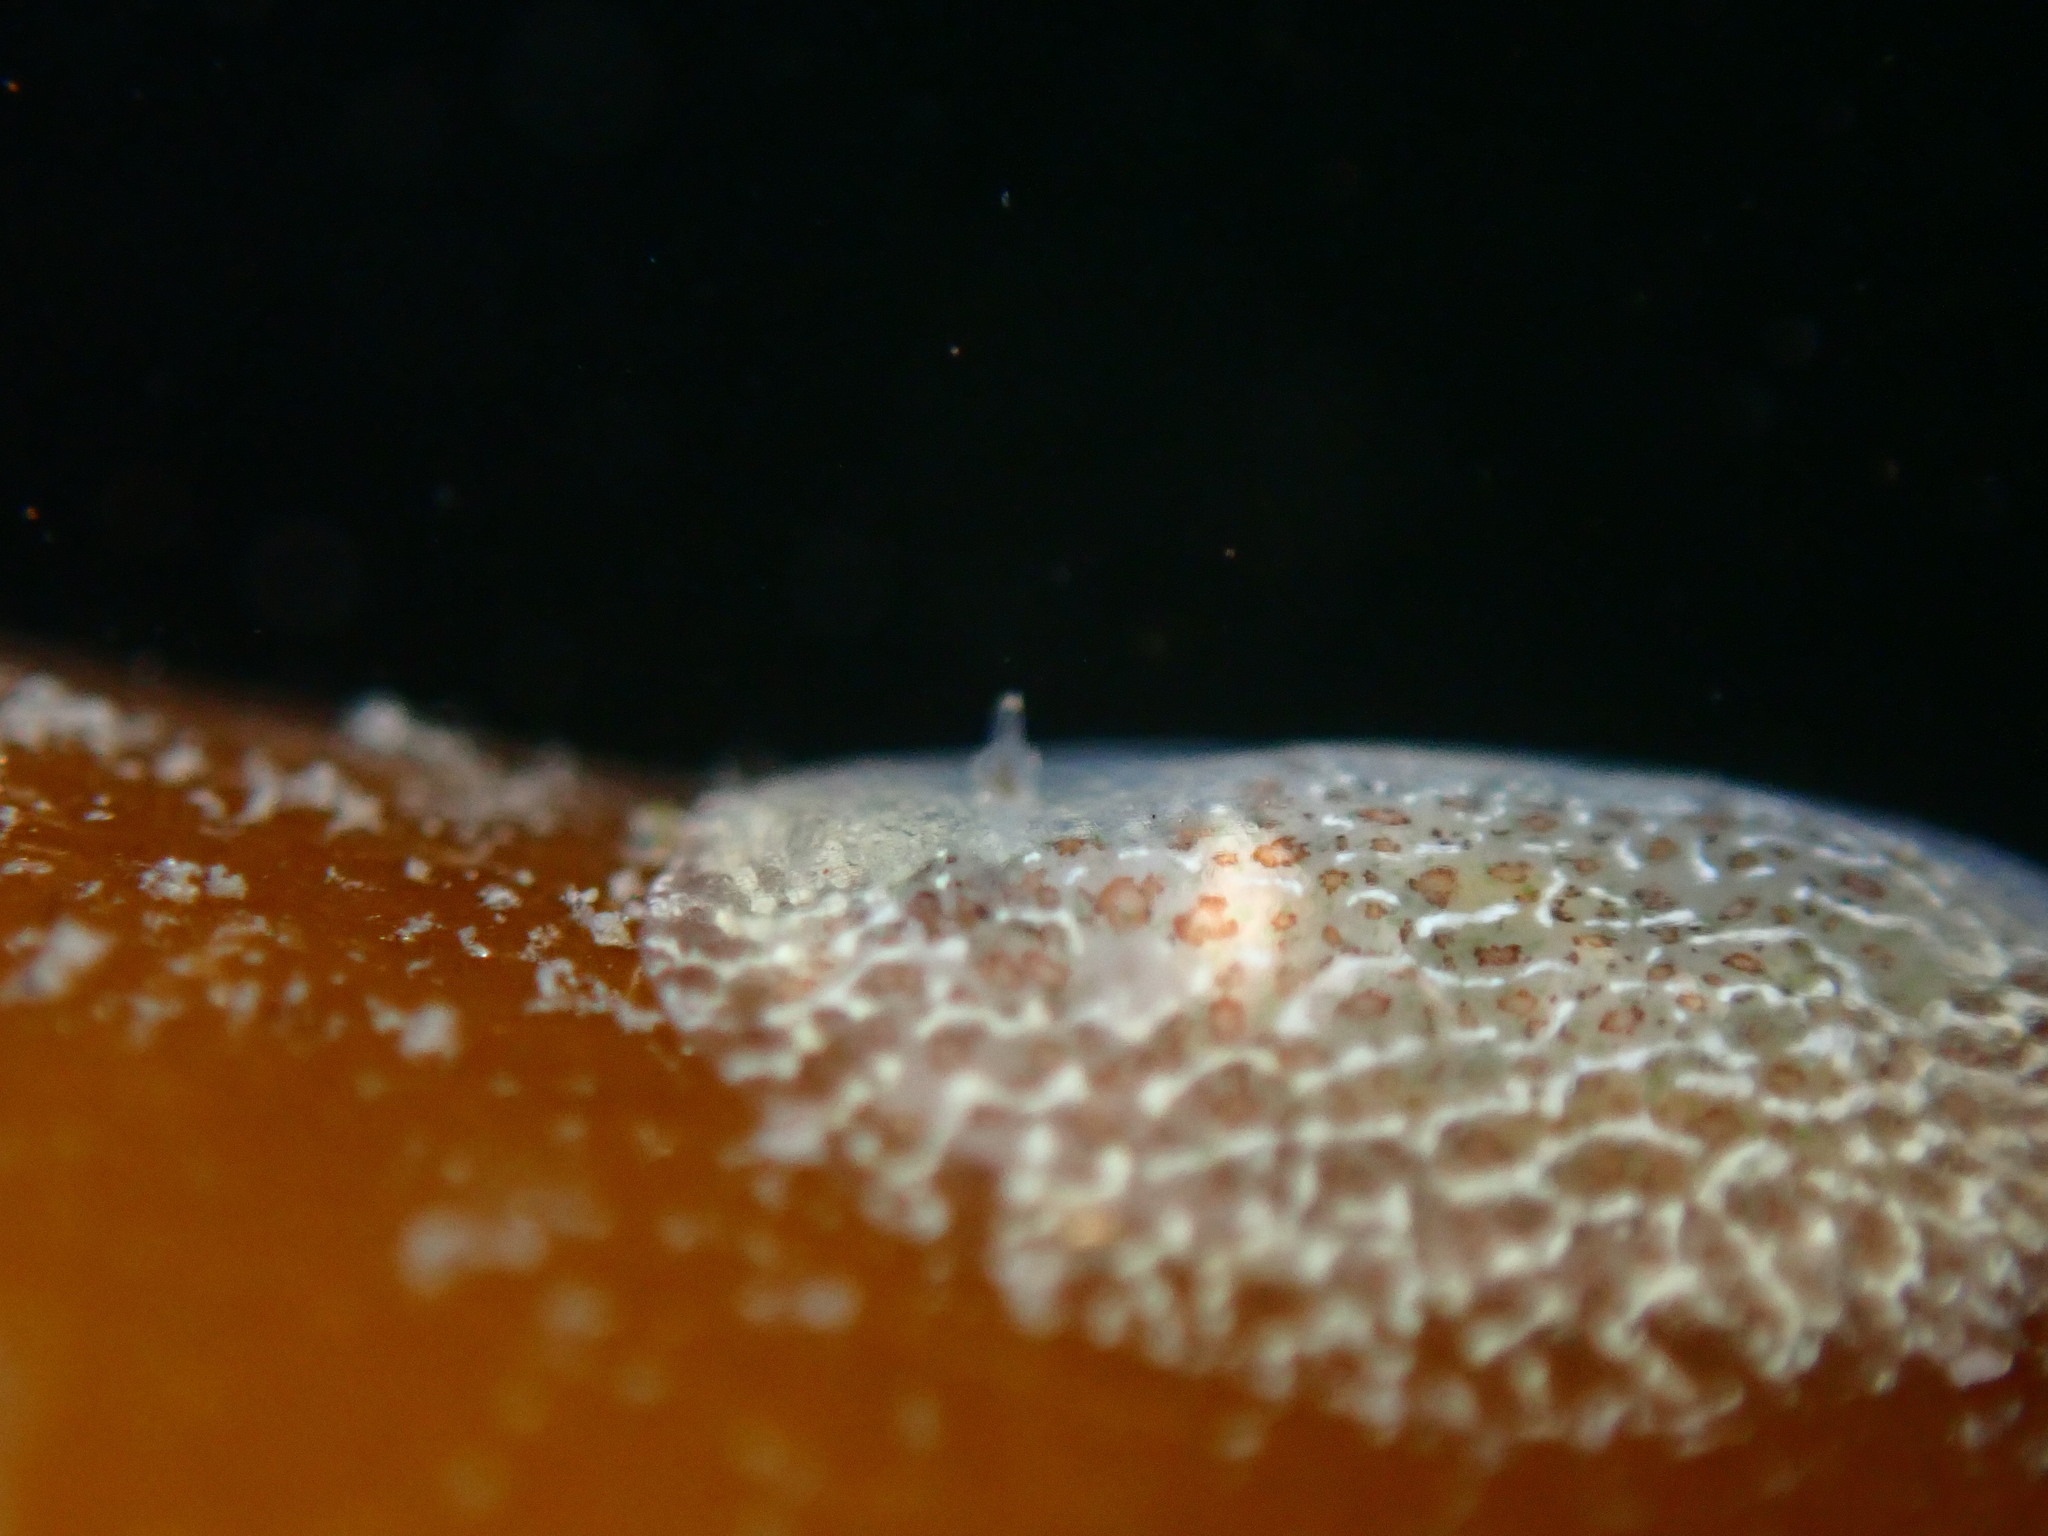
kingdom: Animalia
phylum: Mollusca
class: Gastropoda
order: Nudibranchia
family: Corambidae
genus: Corambe
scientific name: Corambe pacifica
